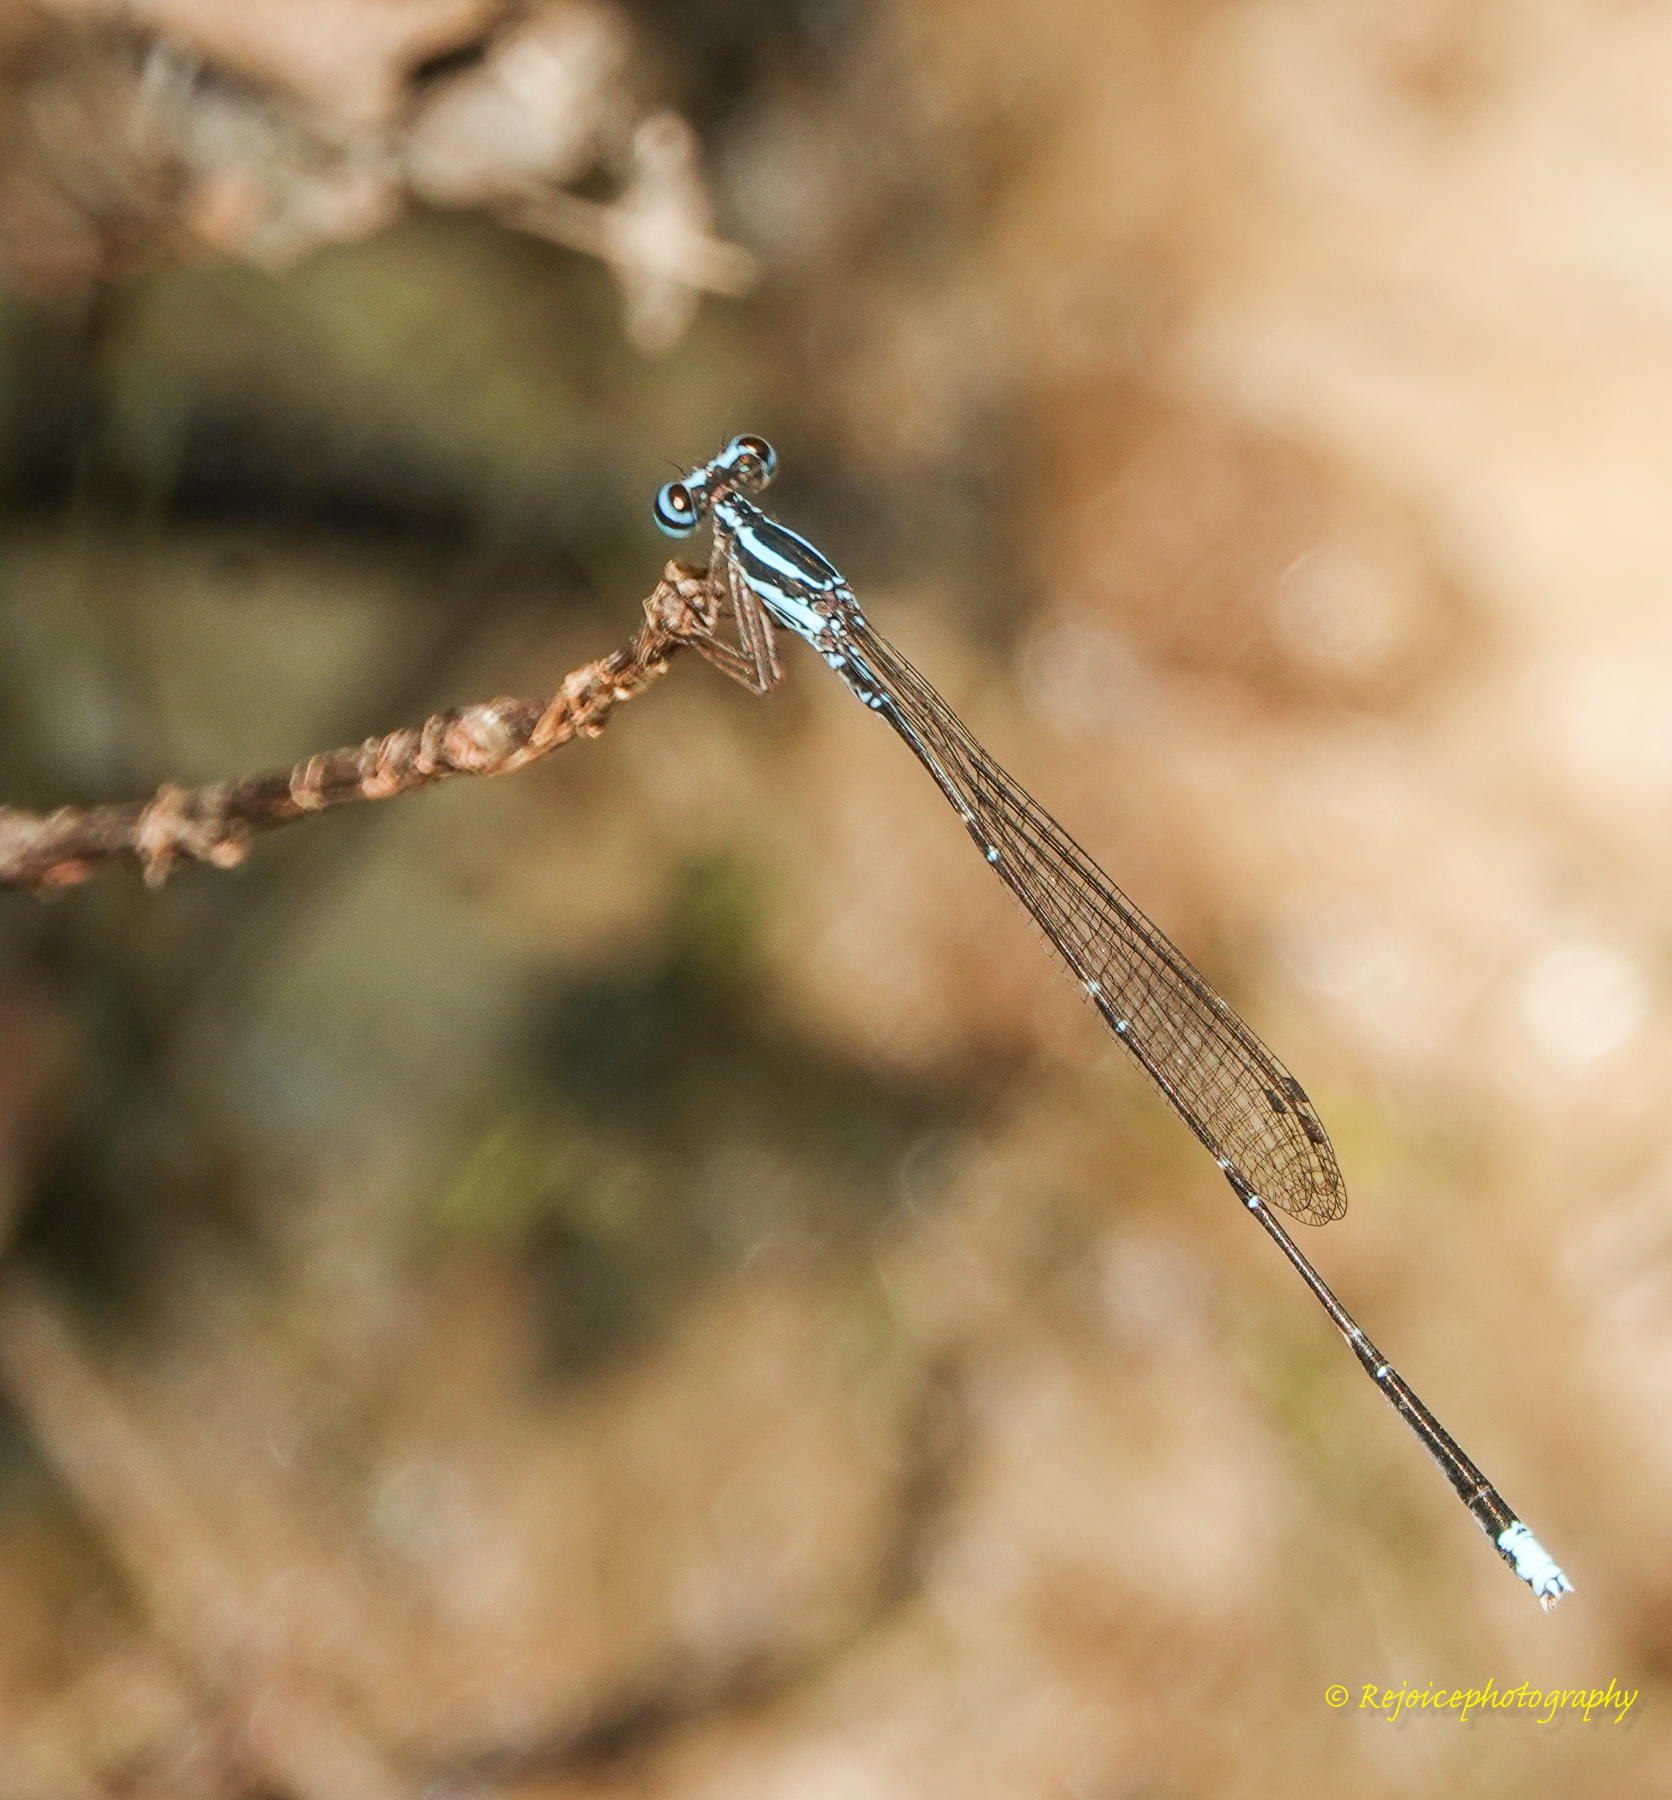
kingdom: Animalia
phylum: Arthropoda
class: Insecta
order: Odonata
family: Platycnemididae
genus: Elattoneura
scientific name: Elattoneura campioni
